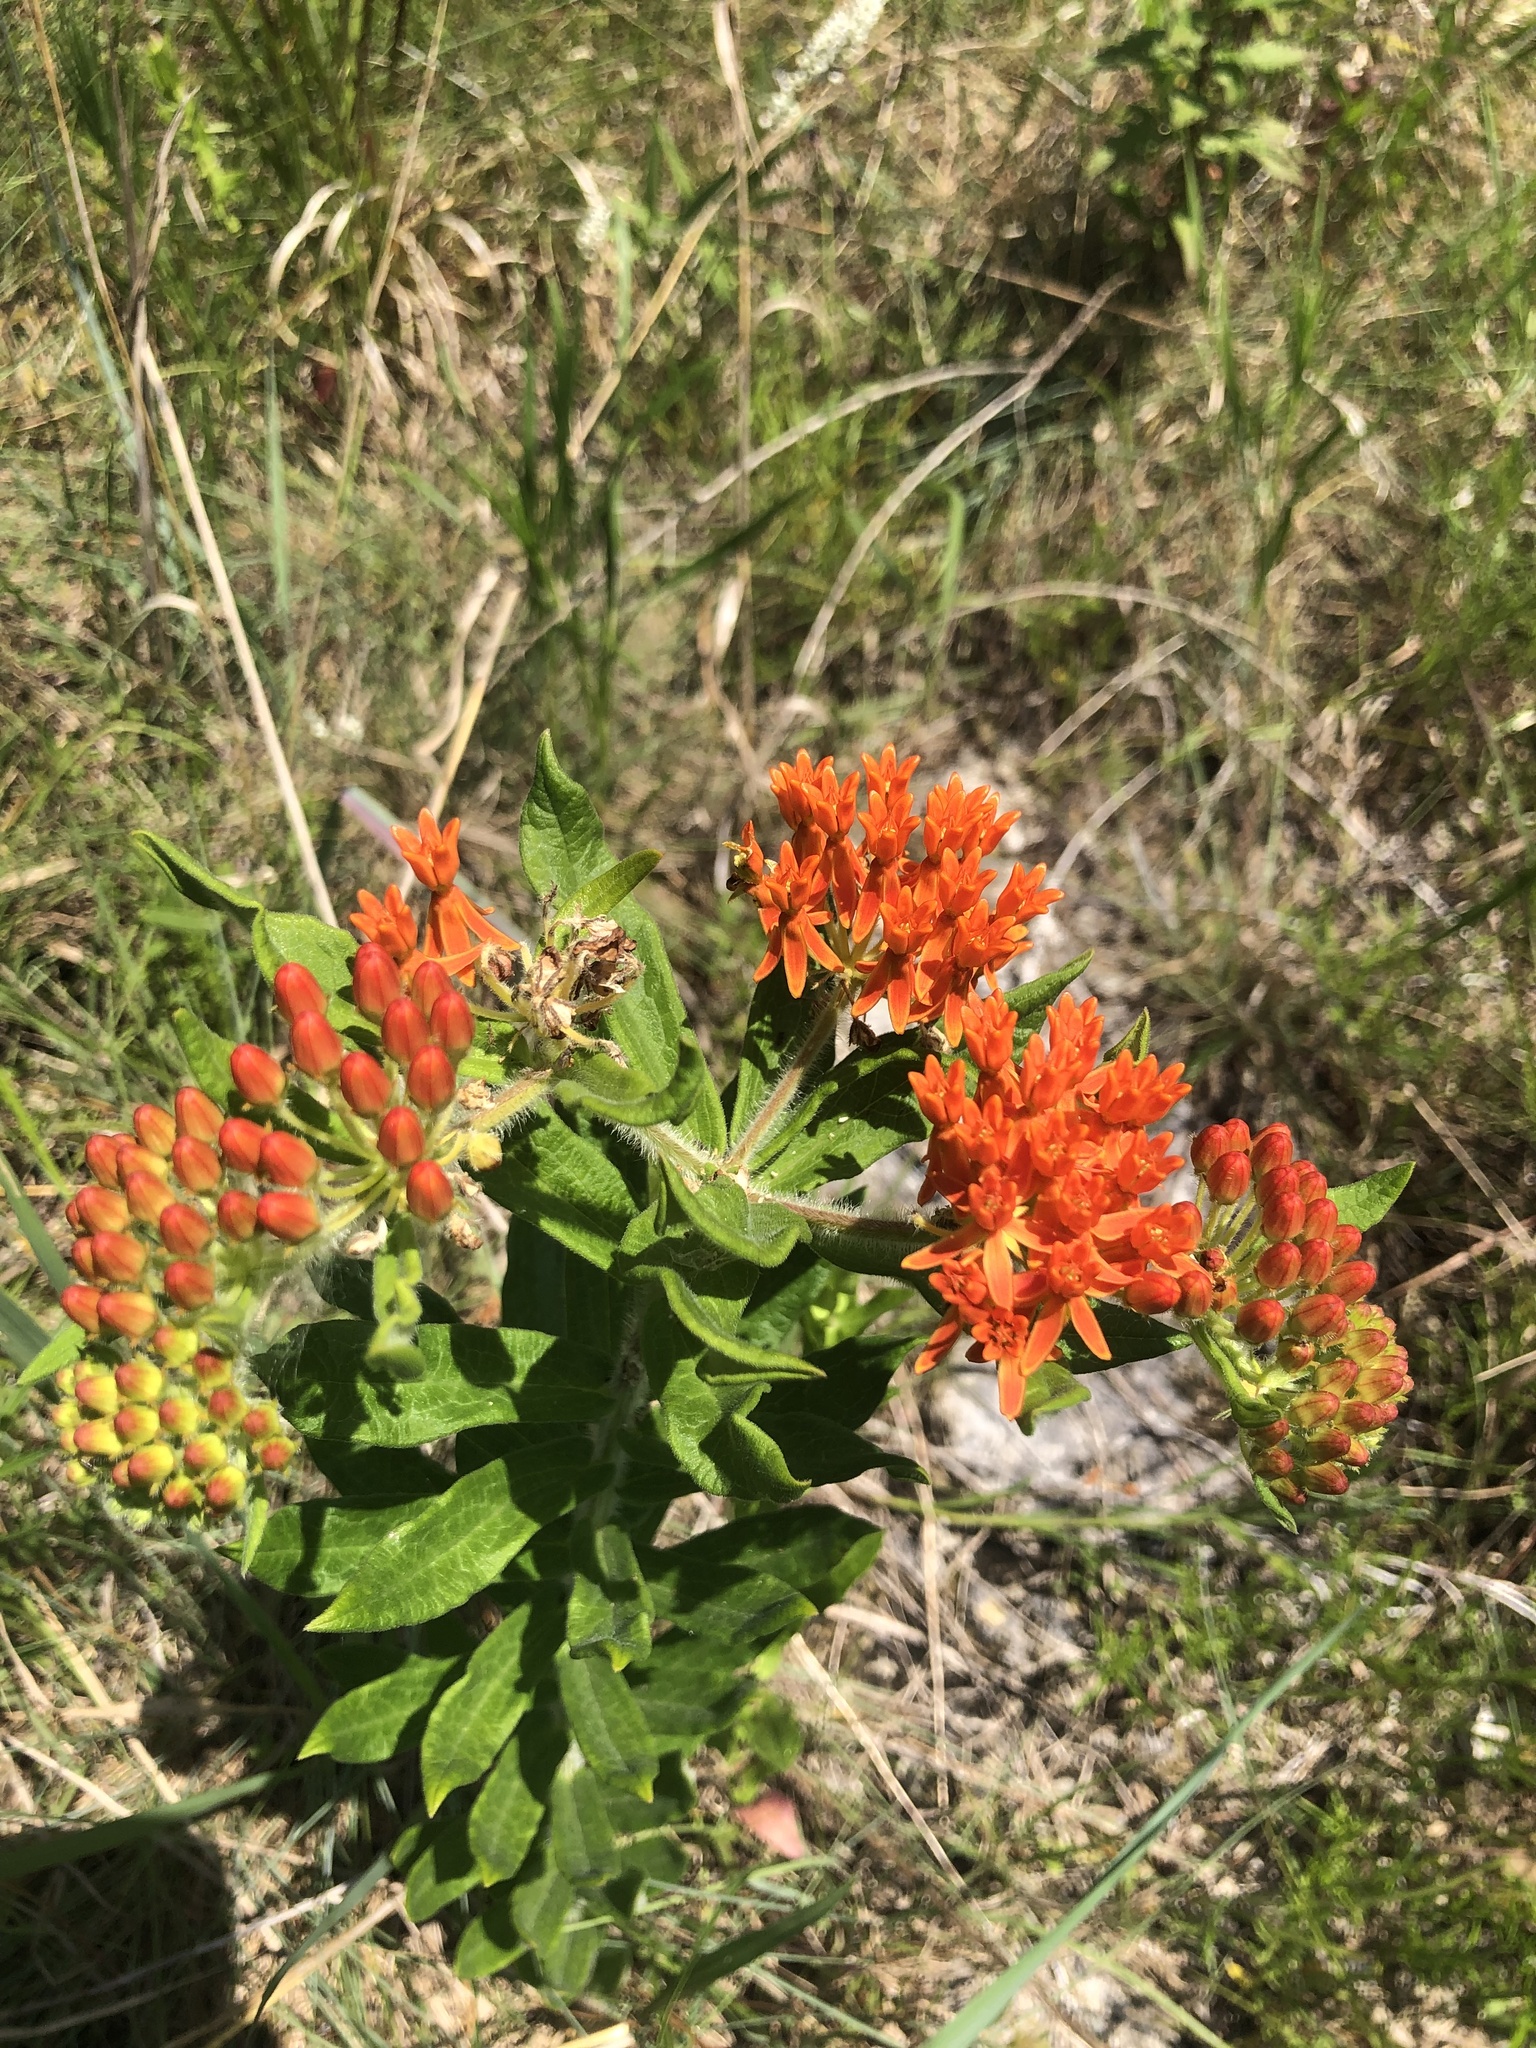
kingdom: Plantae
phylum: Tracheophyta
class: Magnoliopsida
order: Gentianales
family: Apocynaceae
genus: Asclepias
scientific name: Asclepias tuberosa
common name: Butterfly milkweed
